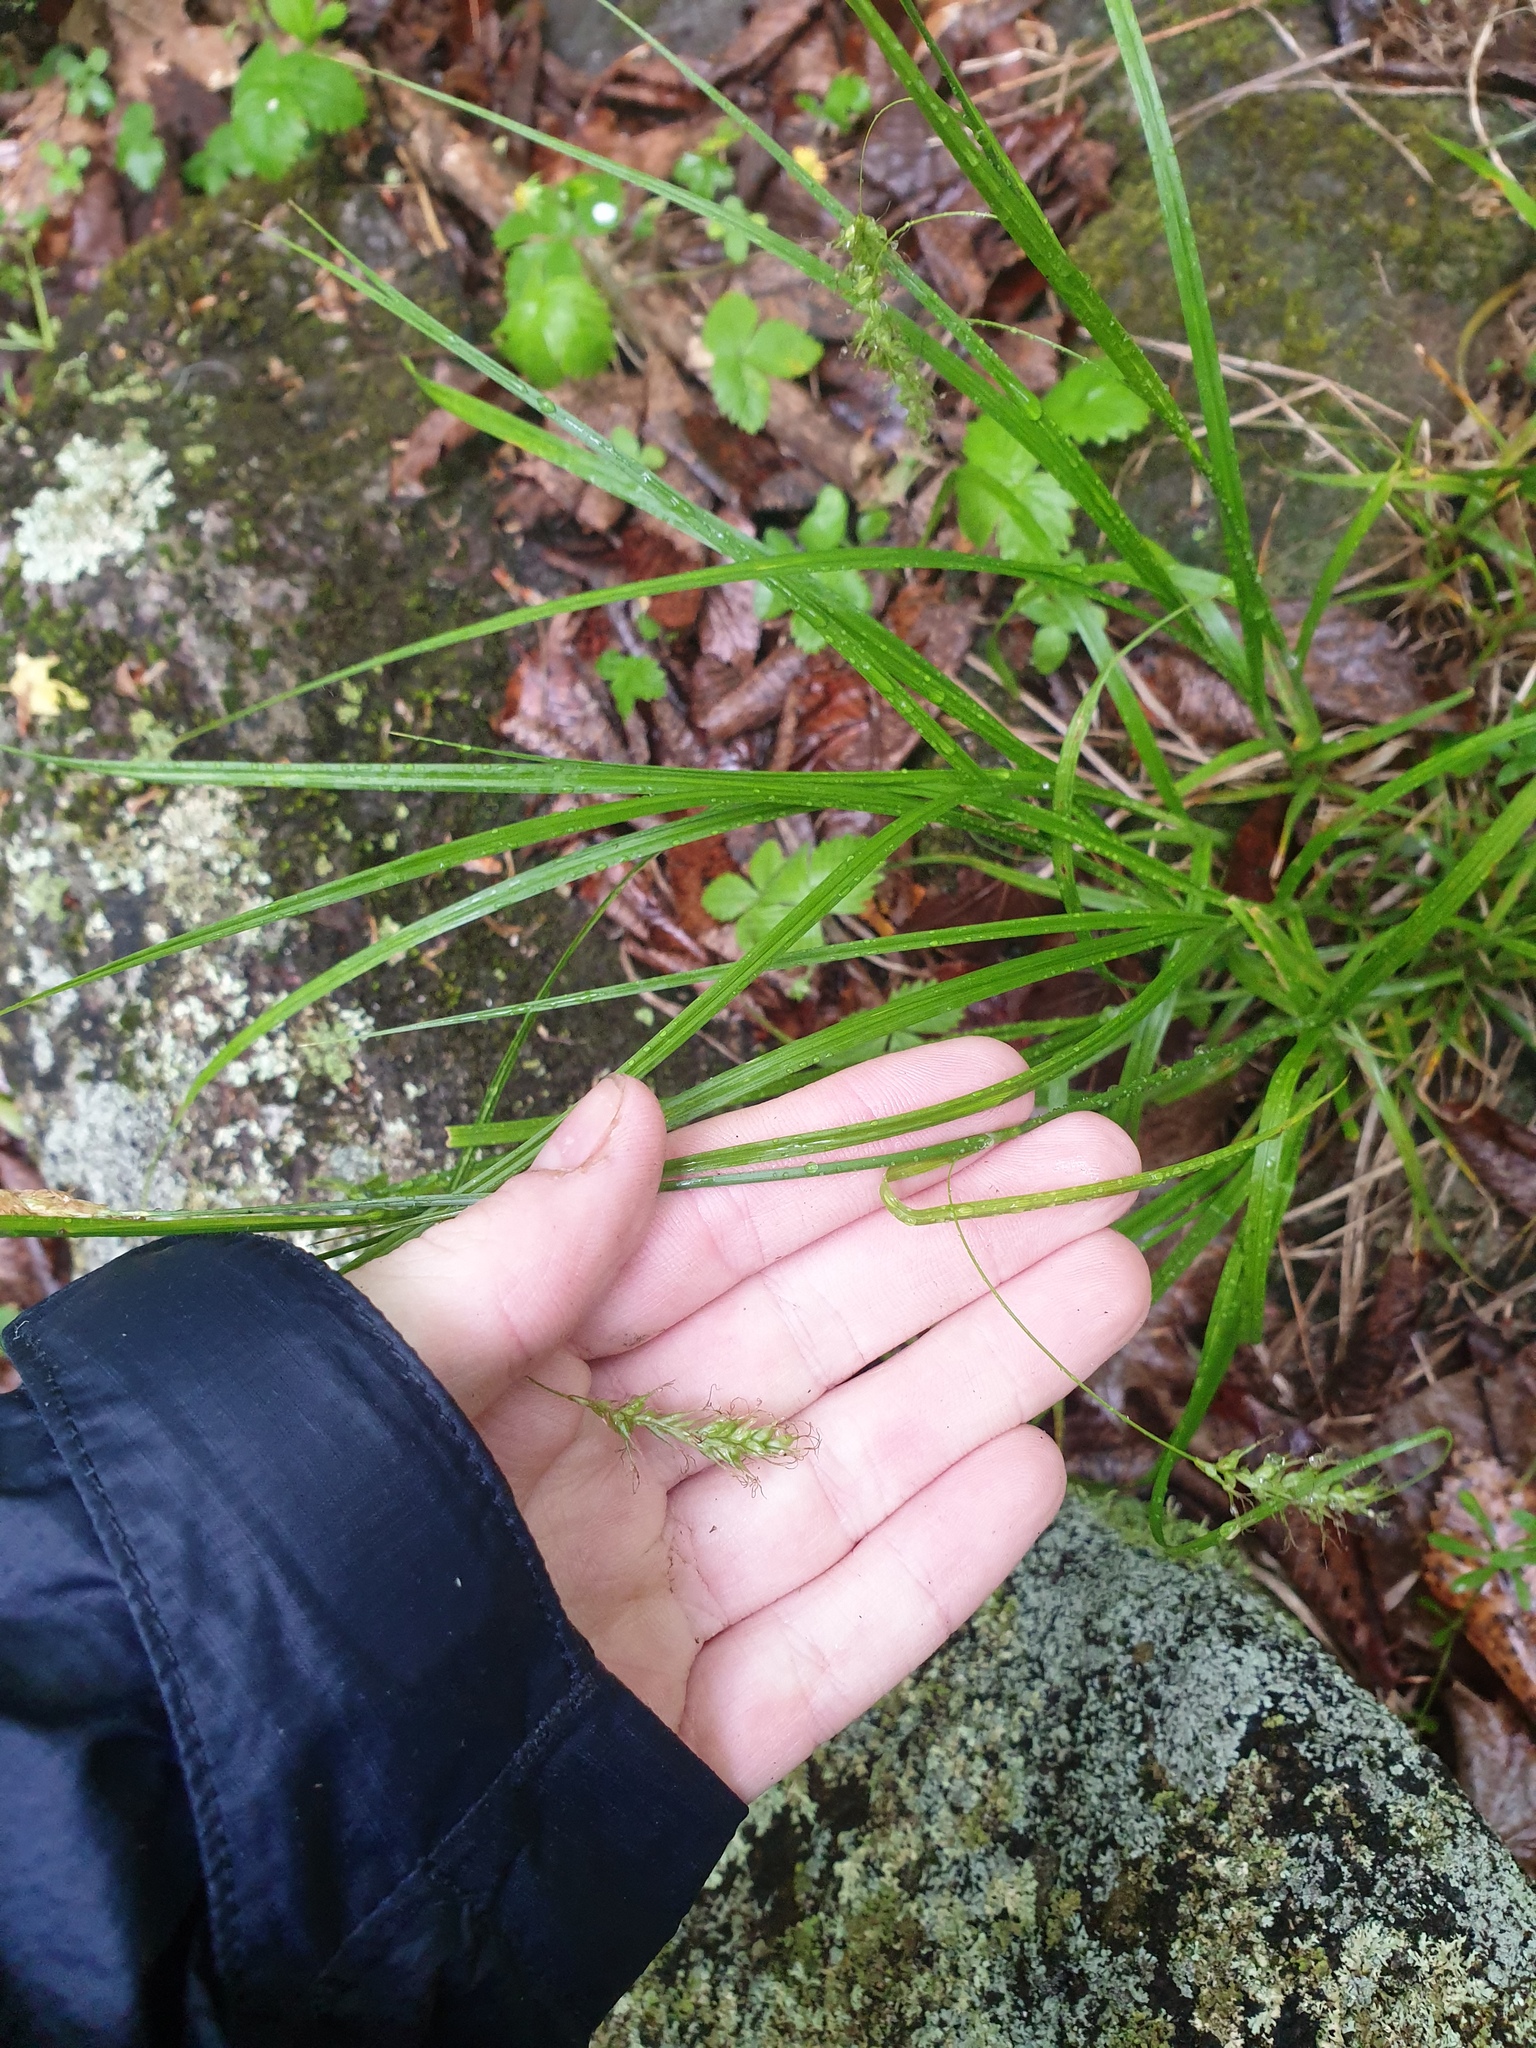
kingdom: Plantae
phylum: Tracheophyta
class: Liliopsida
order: Poales
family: Cyperaceae
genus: Carex
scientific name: Carex sprengelii
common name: Long-beaked sedge
